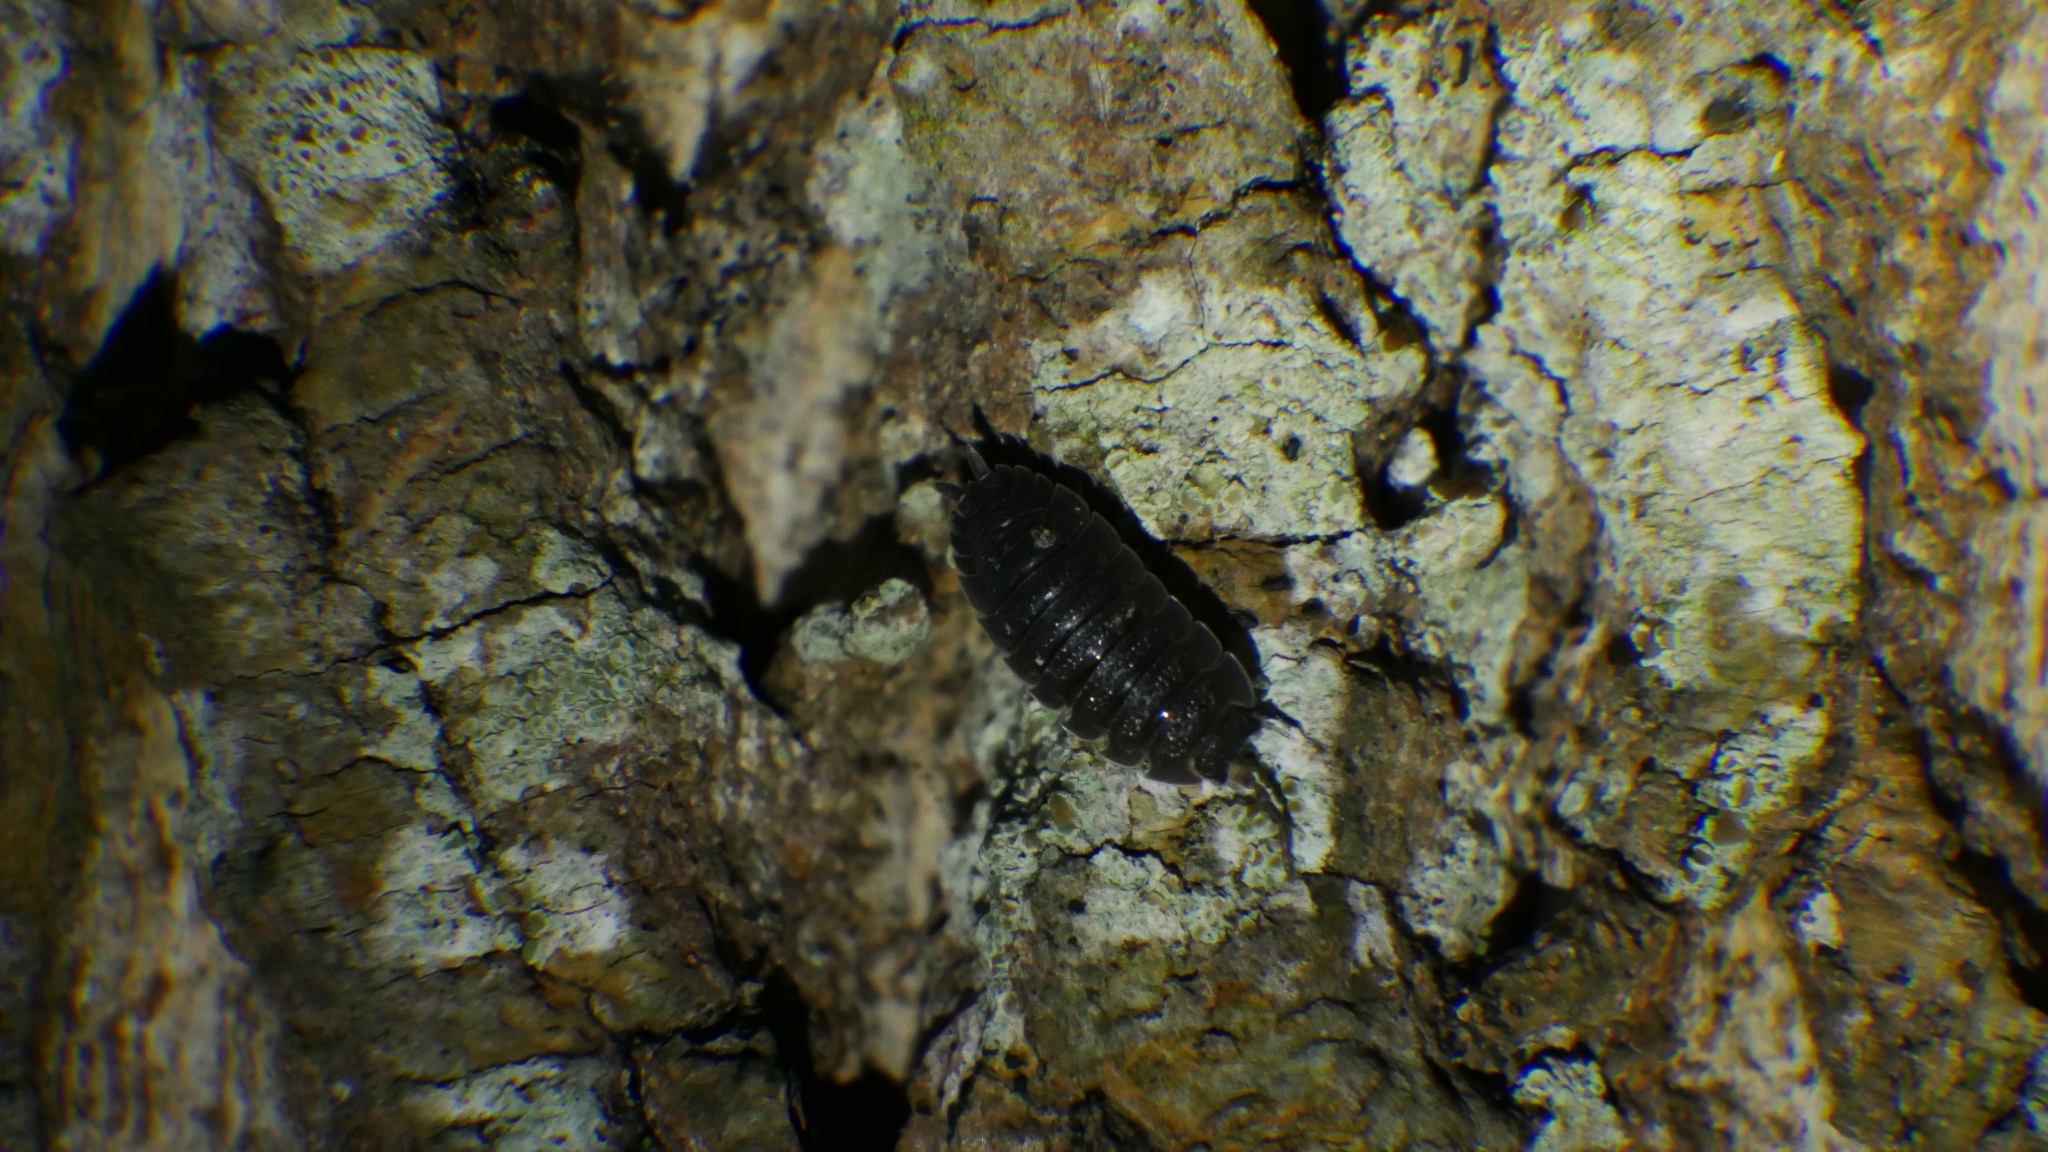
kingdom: Animalia
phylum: Arthropoda
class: Malacostraca
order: Isopoda
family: Porcellionidae
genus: Porcellio
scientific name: Porcellio scaber
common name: Common rough woodlouse
